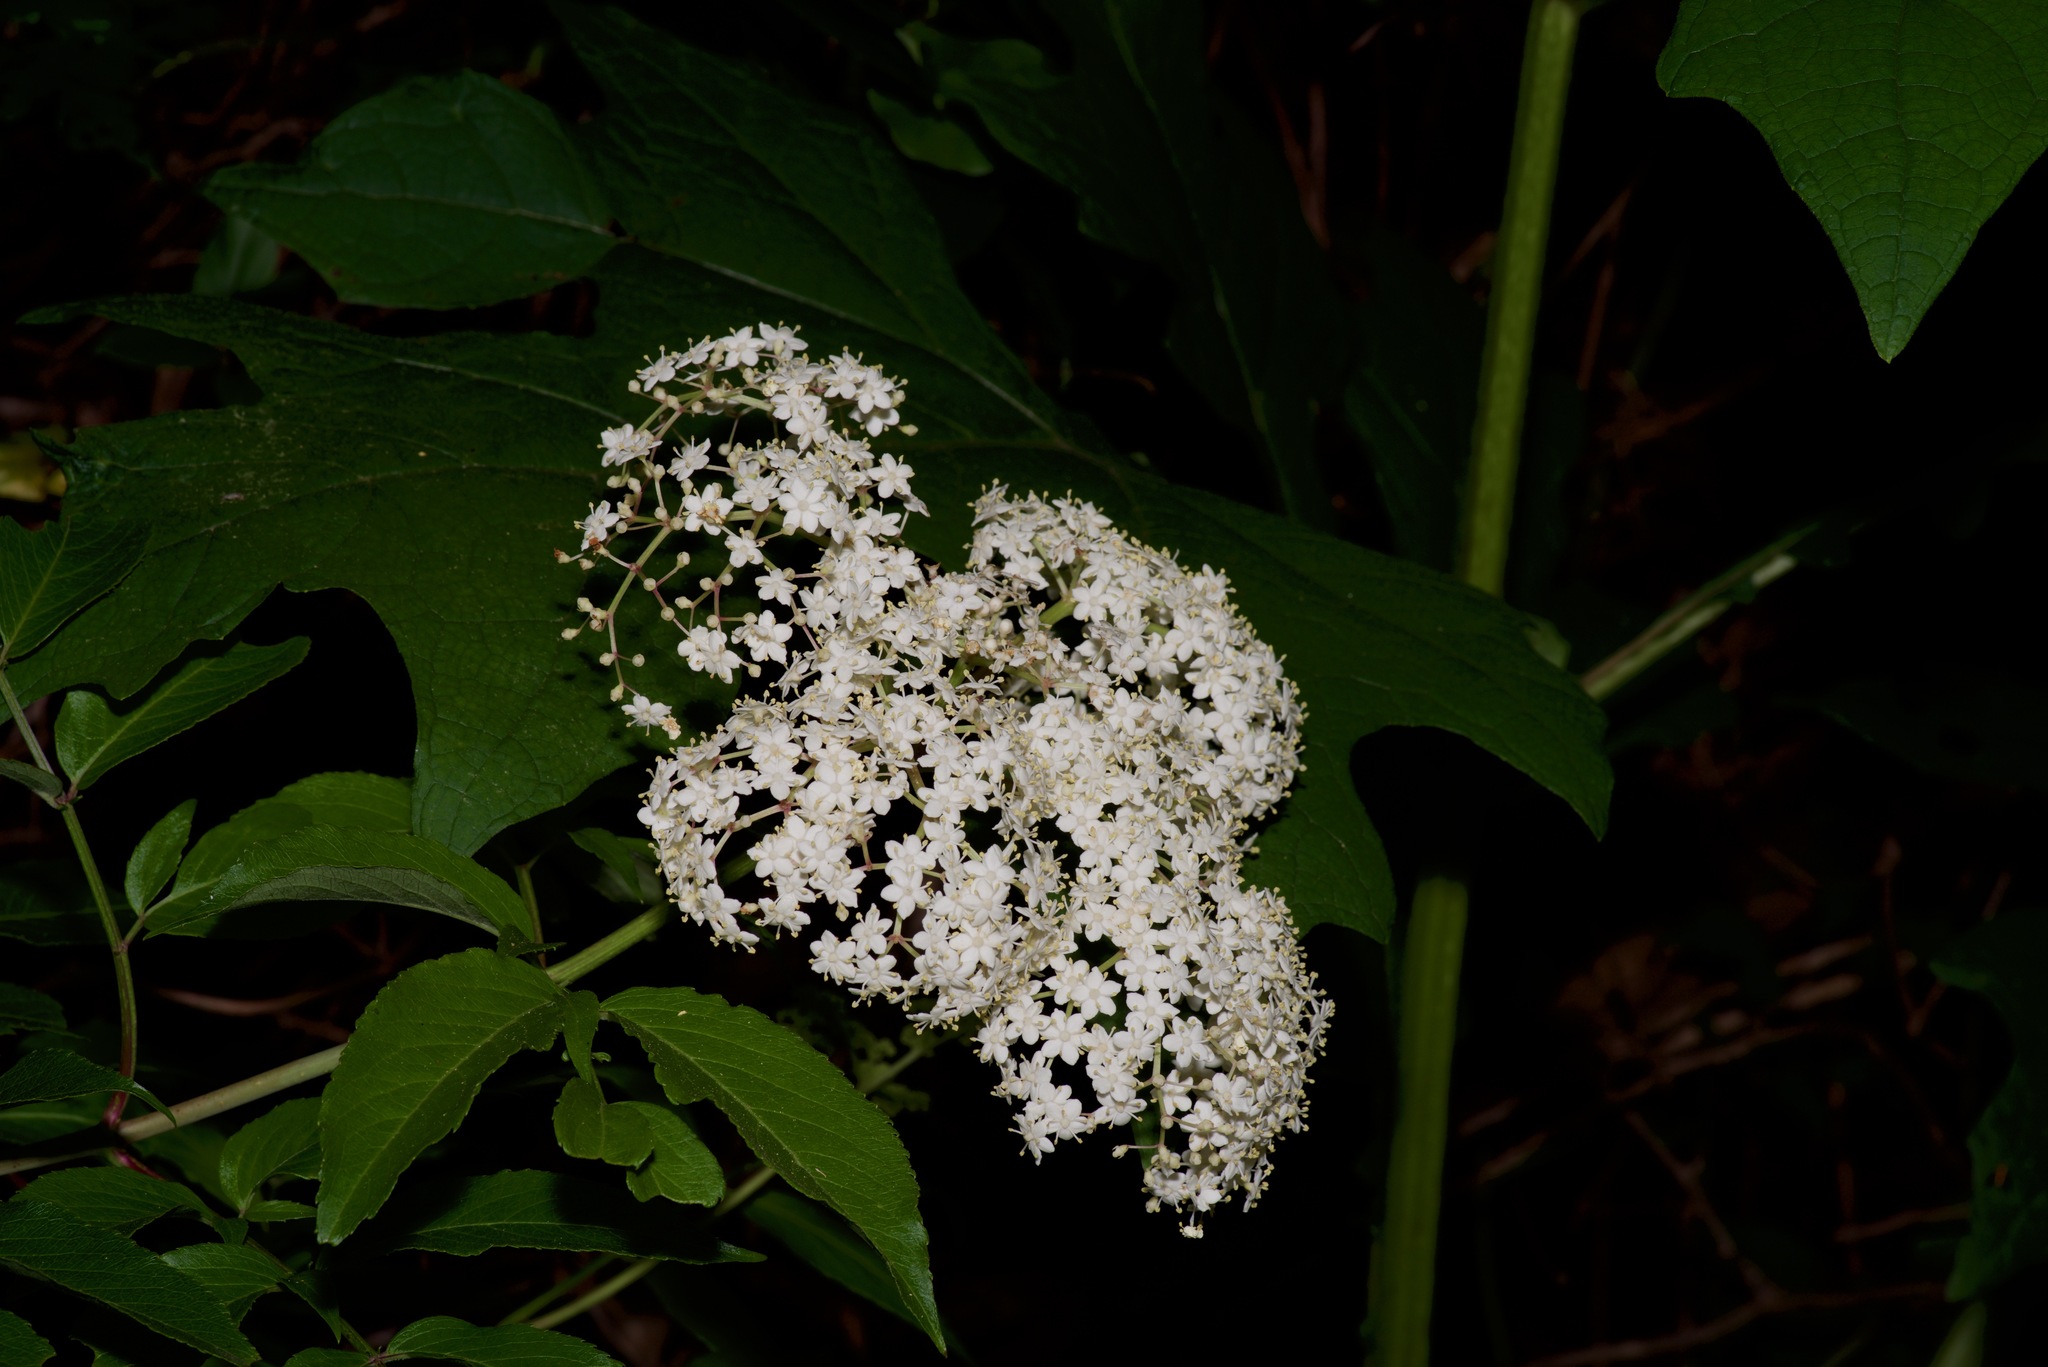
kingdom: Plantae
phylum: Tracheophyta
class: Magnoliopsida
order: Dipsacales
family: Viburnaceae
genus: Sambucus
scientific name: Sambucus canadensis
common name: American elder
